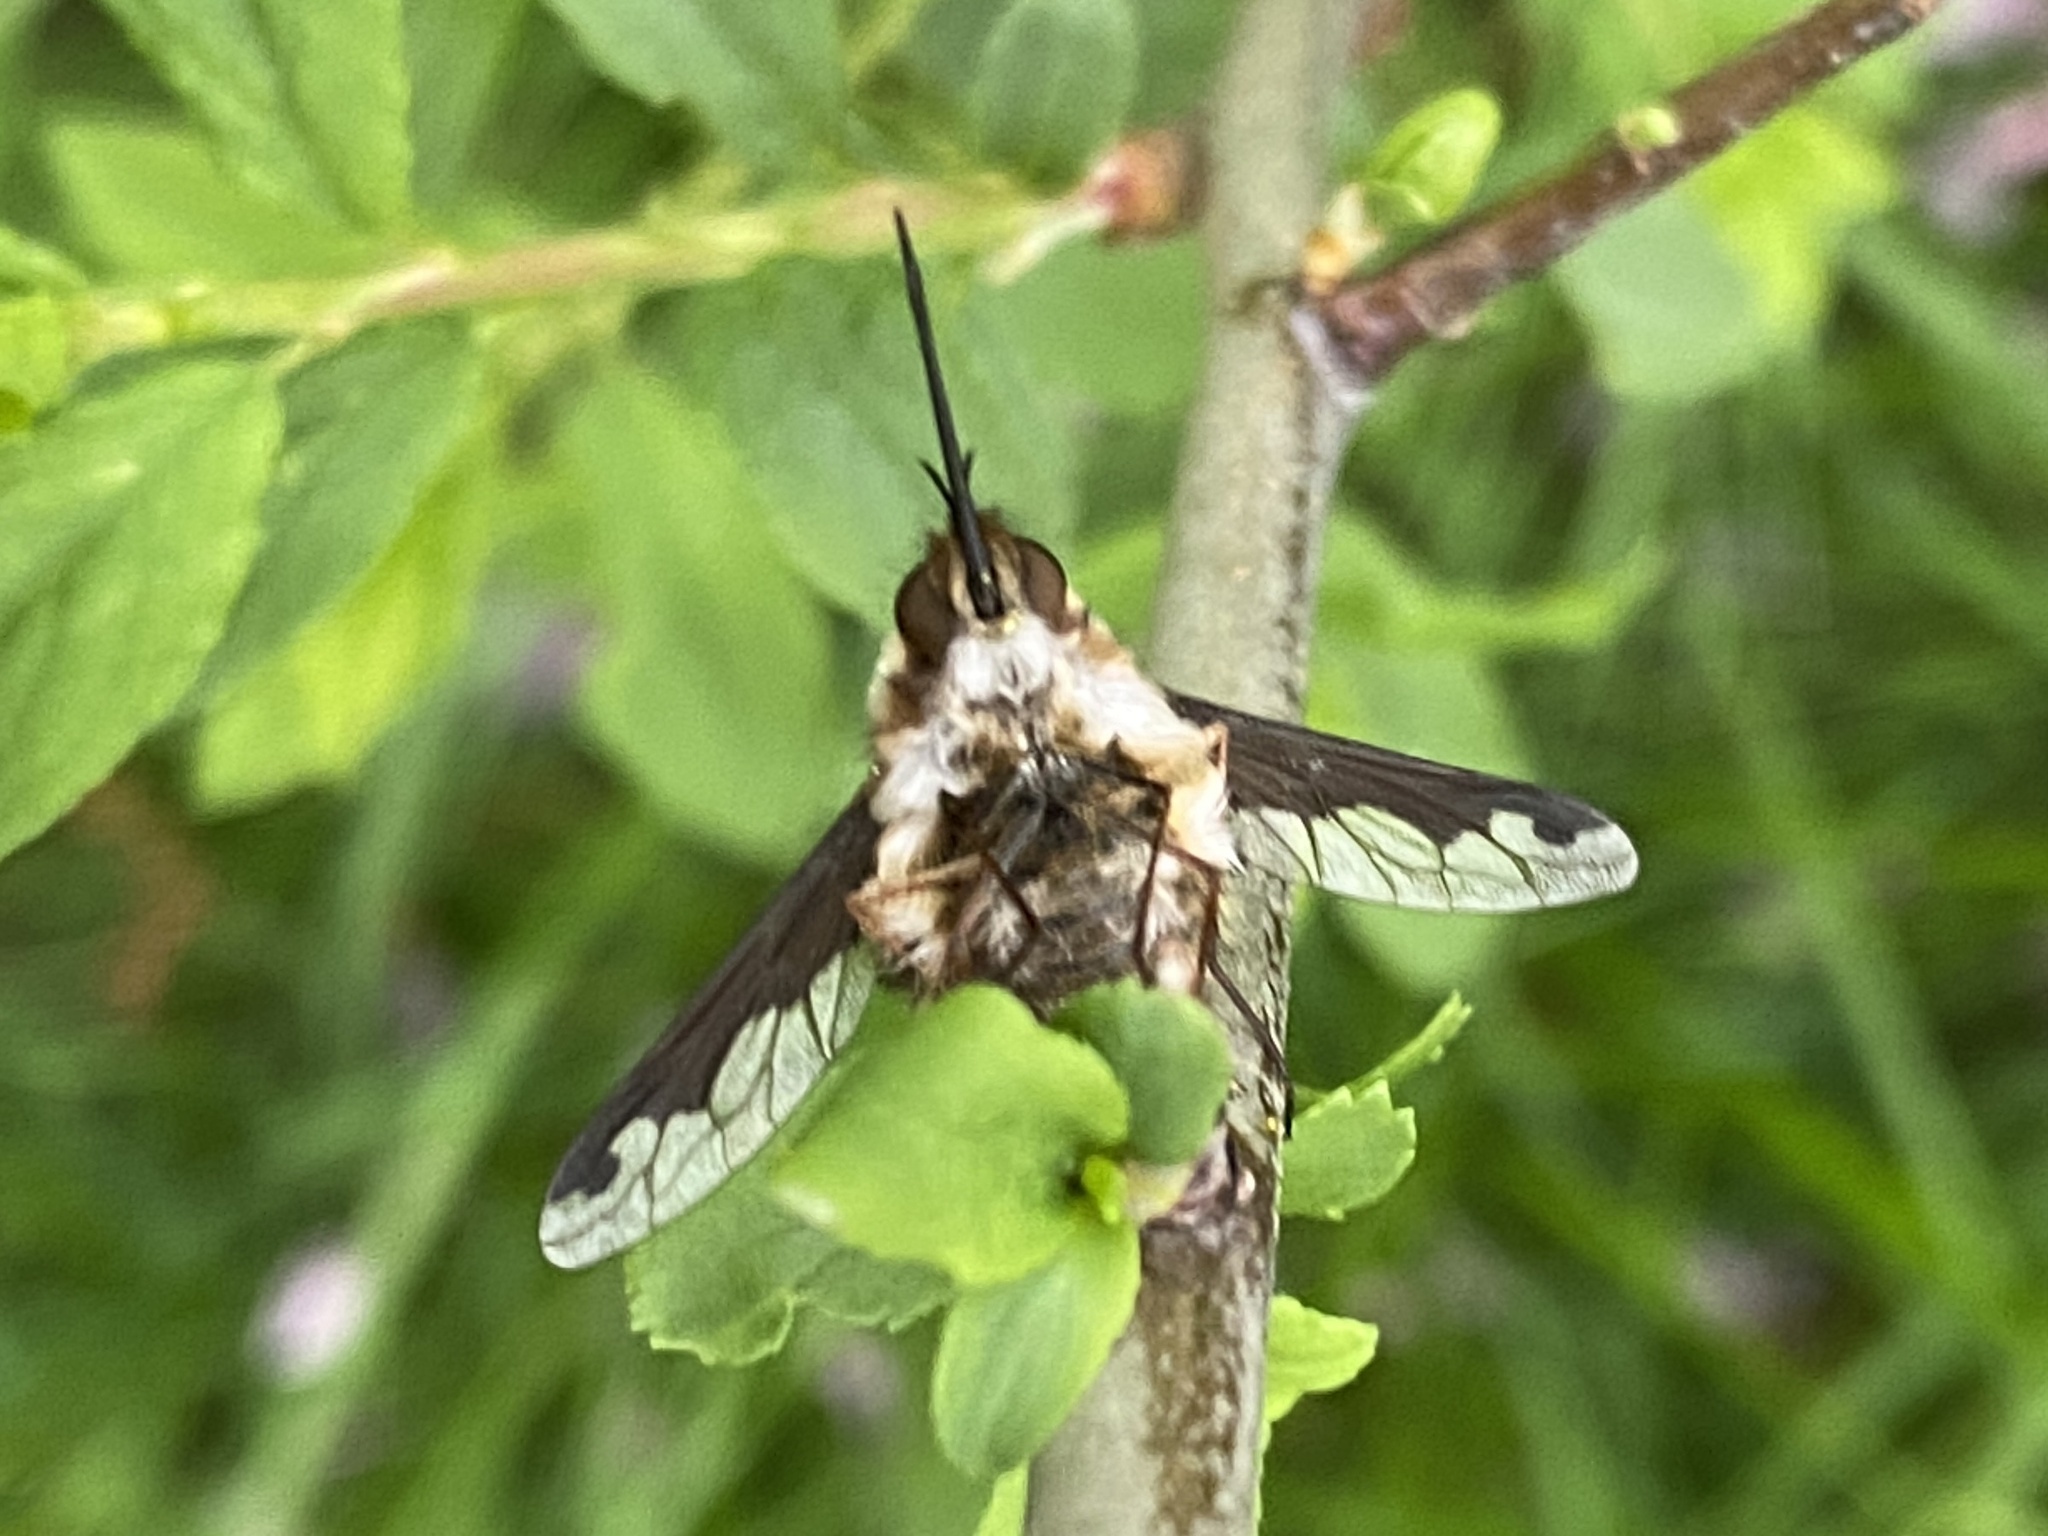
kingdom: Animalia
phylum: Arthropoda
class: Insecta
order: Diptera
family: Bombyliidae
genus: Bombylius
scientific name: Bombylius major
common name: Bee fly
